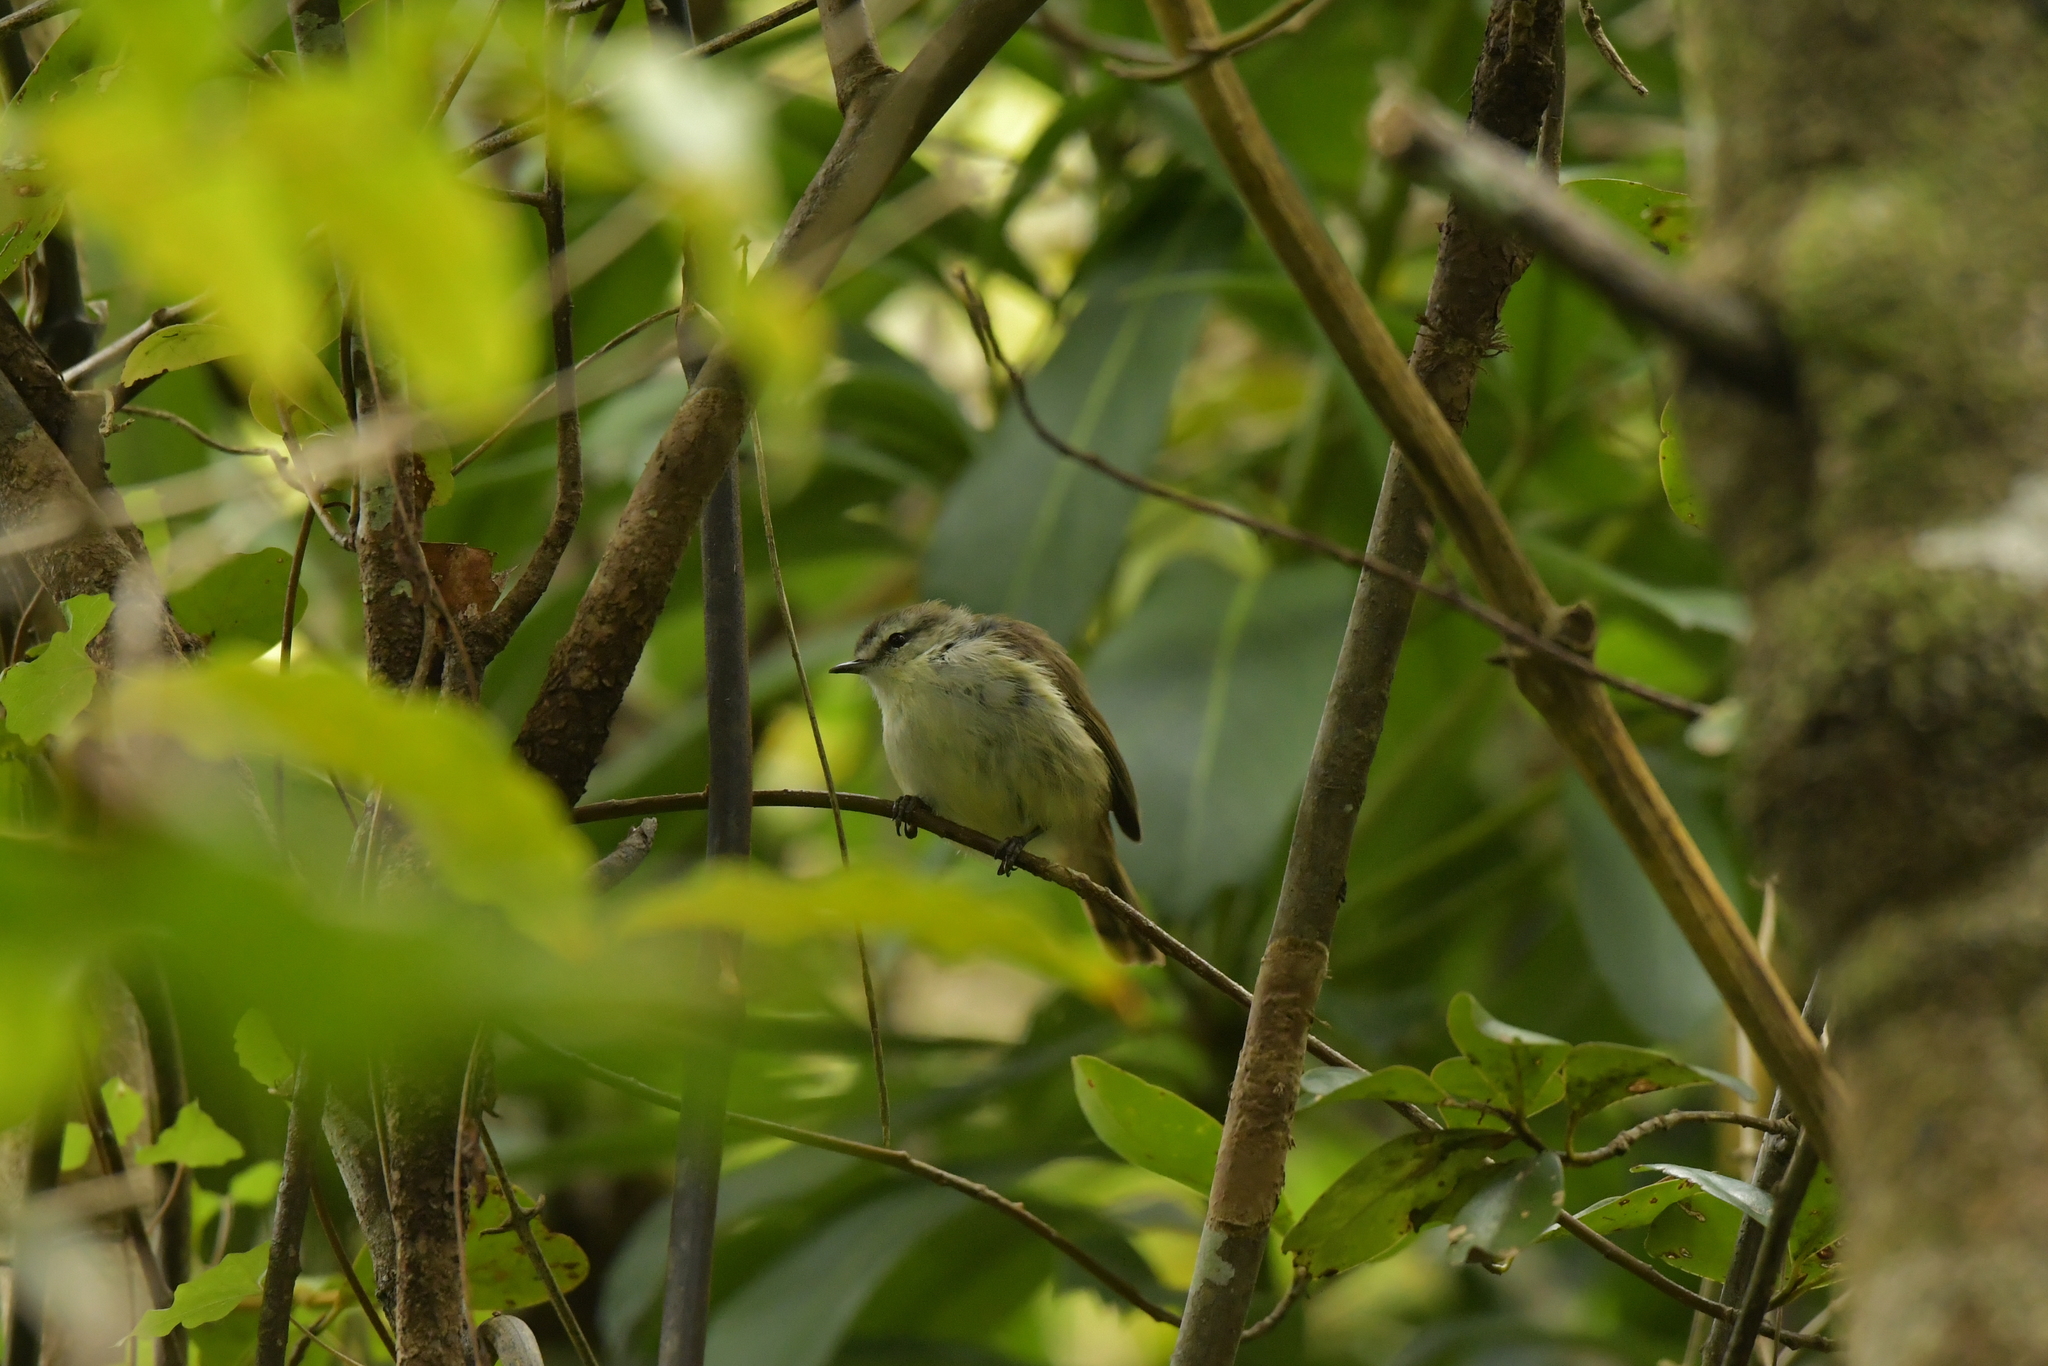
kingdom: Animalia
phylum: Chordata
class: Aves
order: Passeriformes
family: Acanthizidae
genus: Gerygone
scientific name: Gerygone albofrontata
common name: Chatham gerygone
